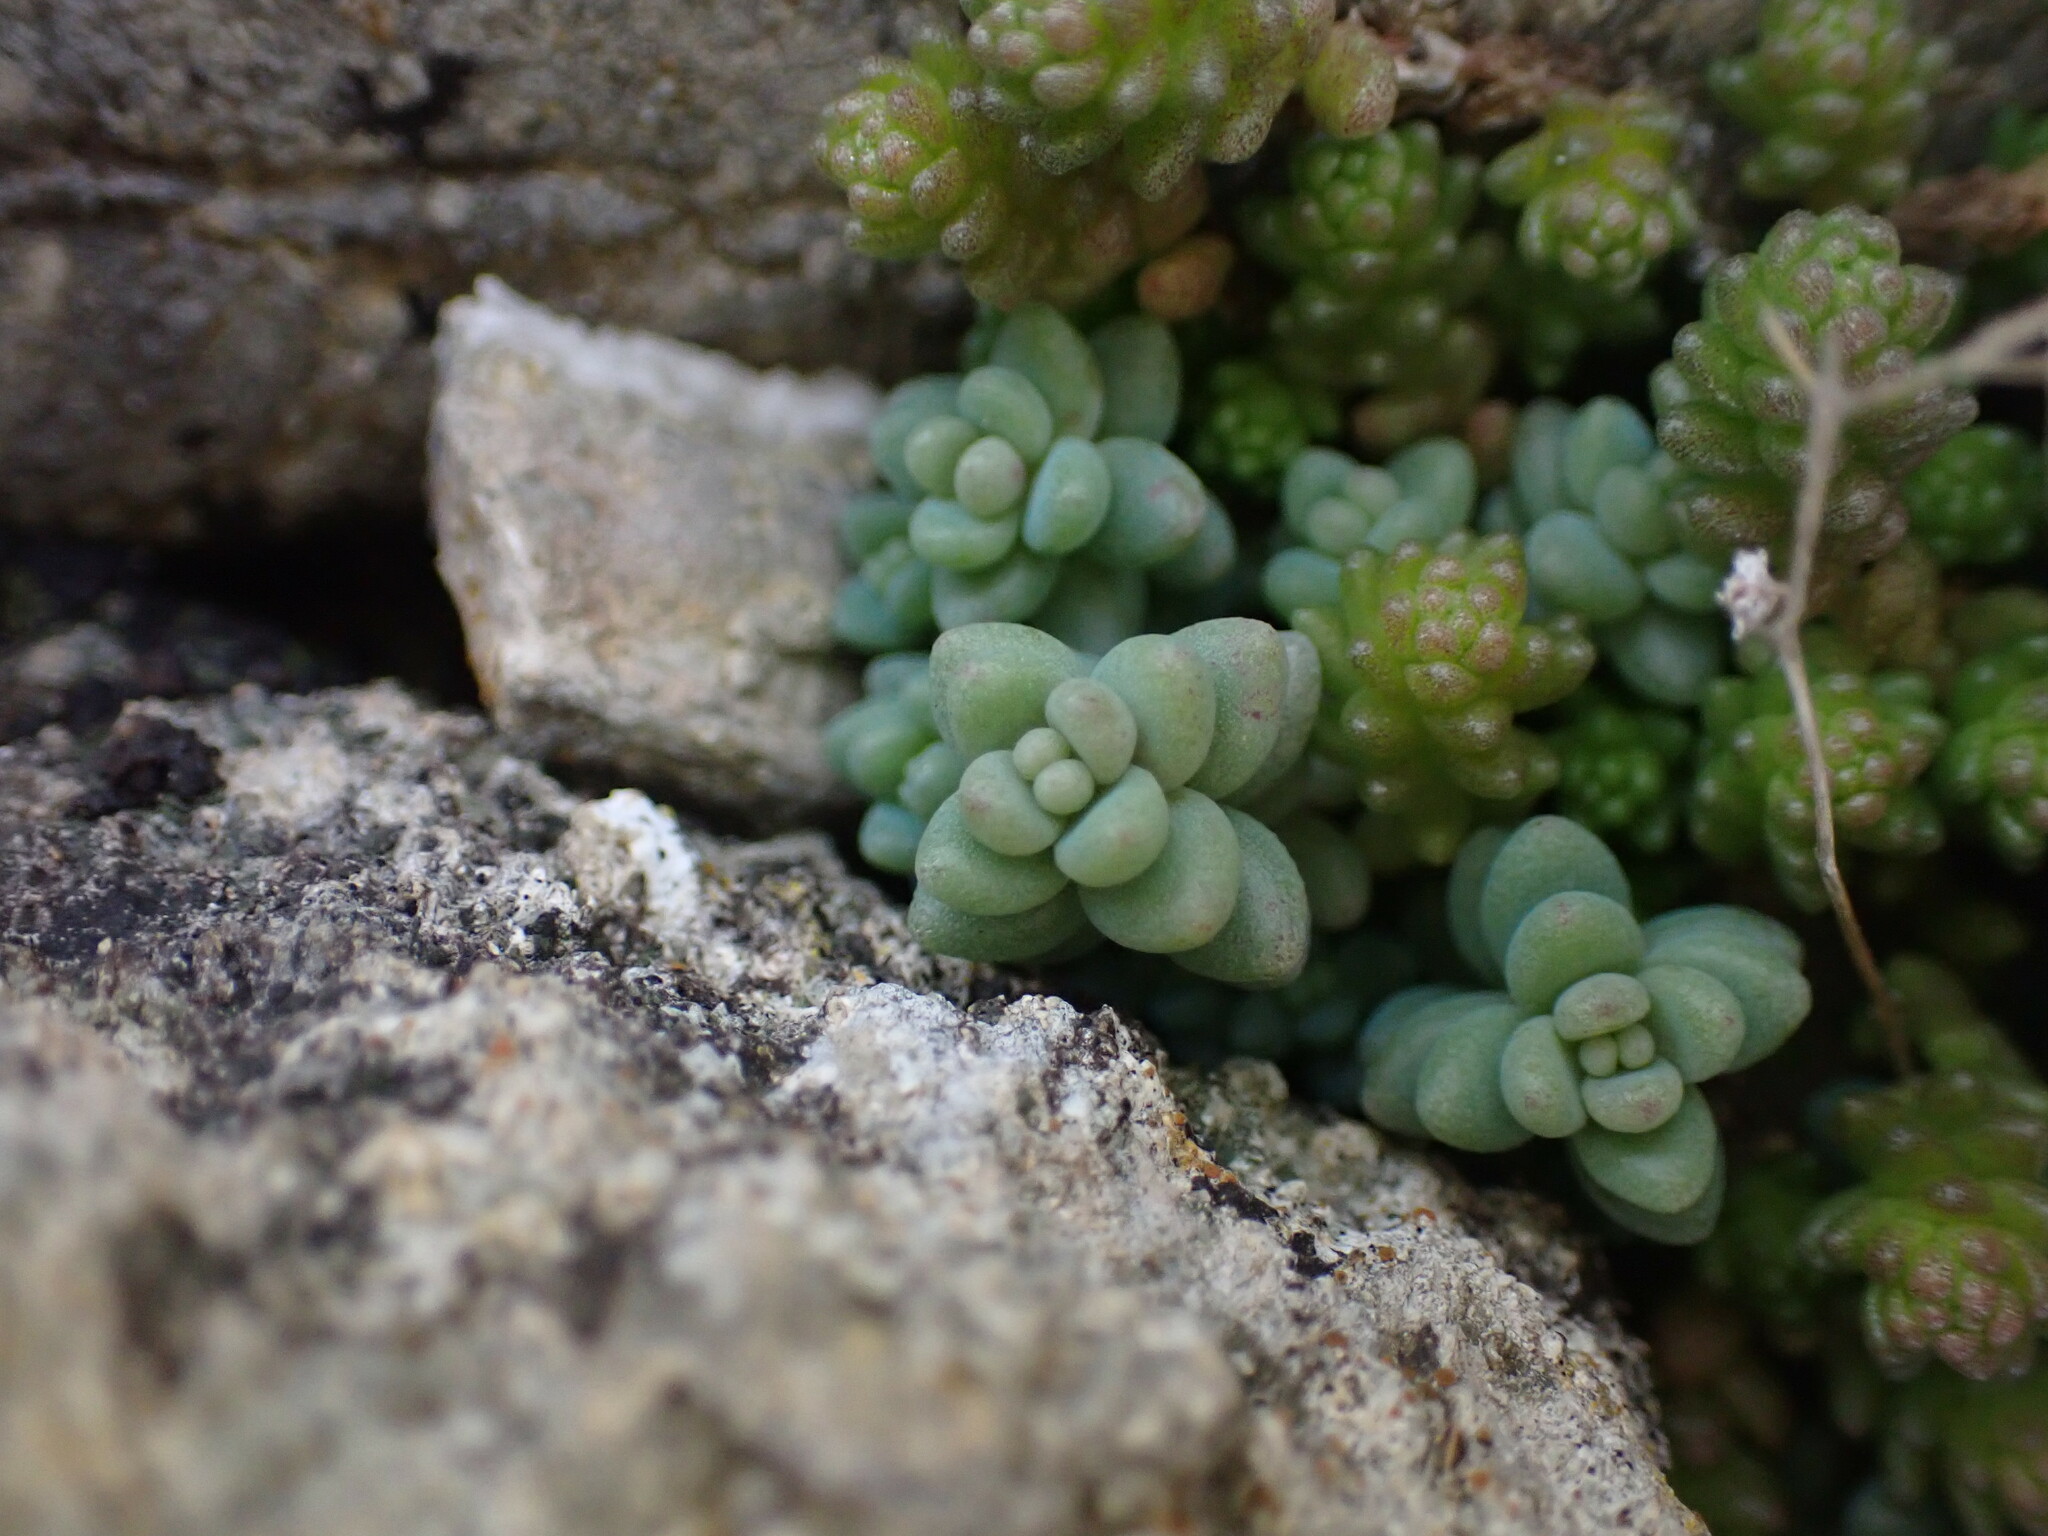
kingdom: Plantae
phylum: Tracheophyta
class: Magnoliopsida
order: Saxifragales
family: Crassulaceae
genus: Sedum
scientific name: Sedum dasyphyllum
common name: Thick-leaf stonecrop
